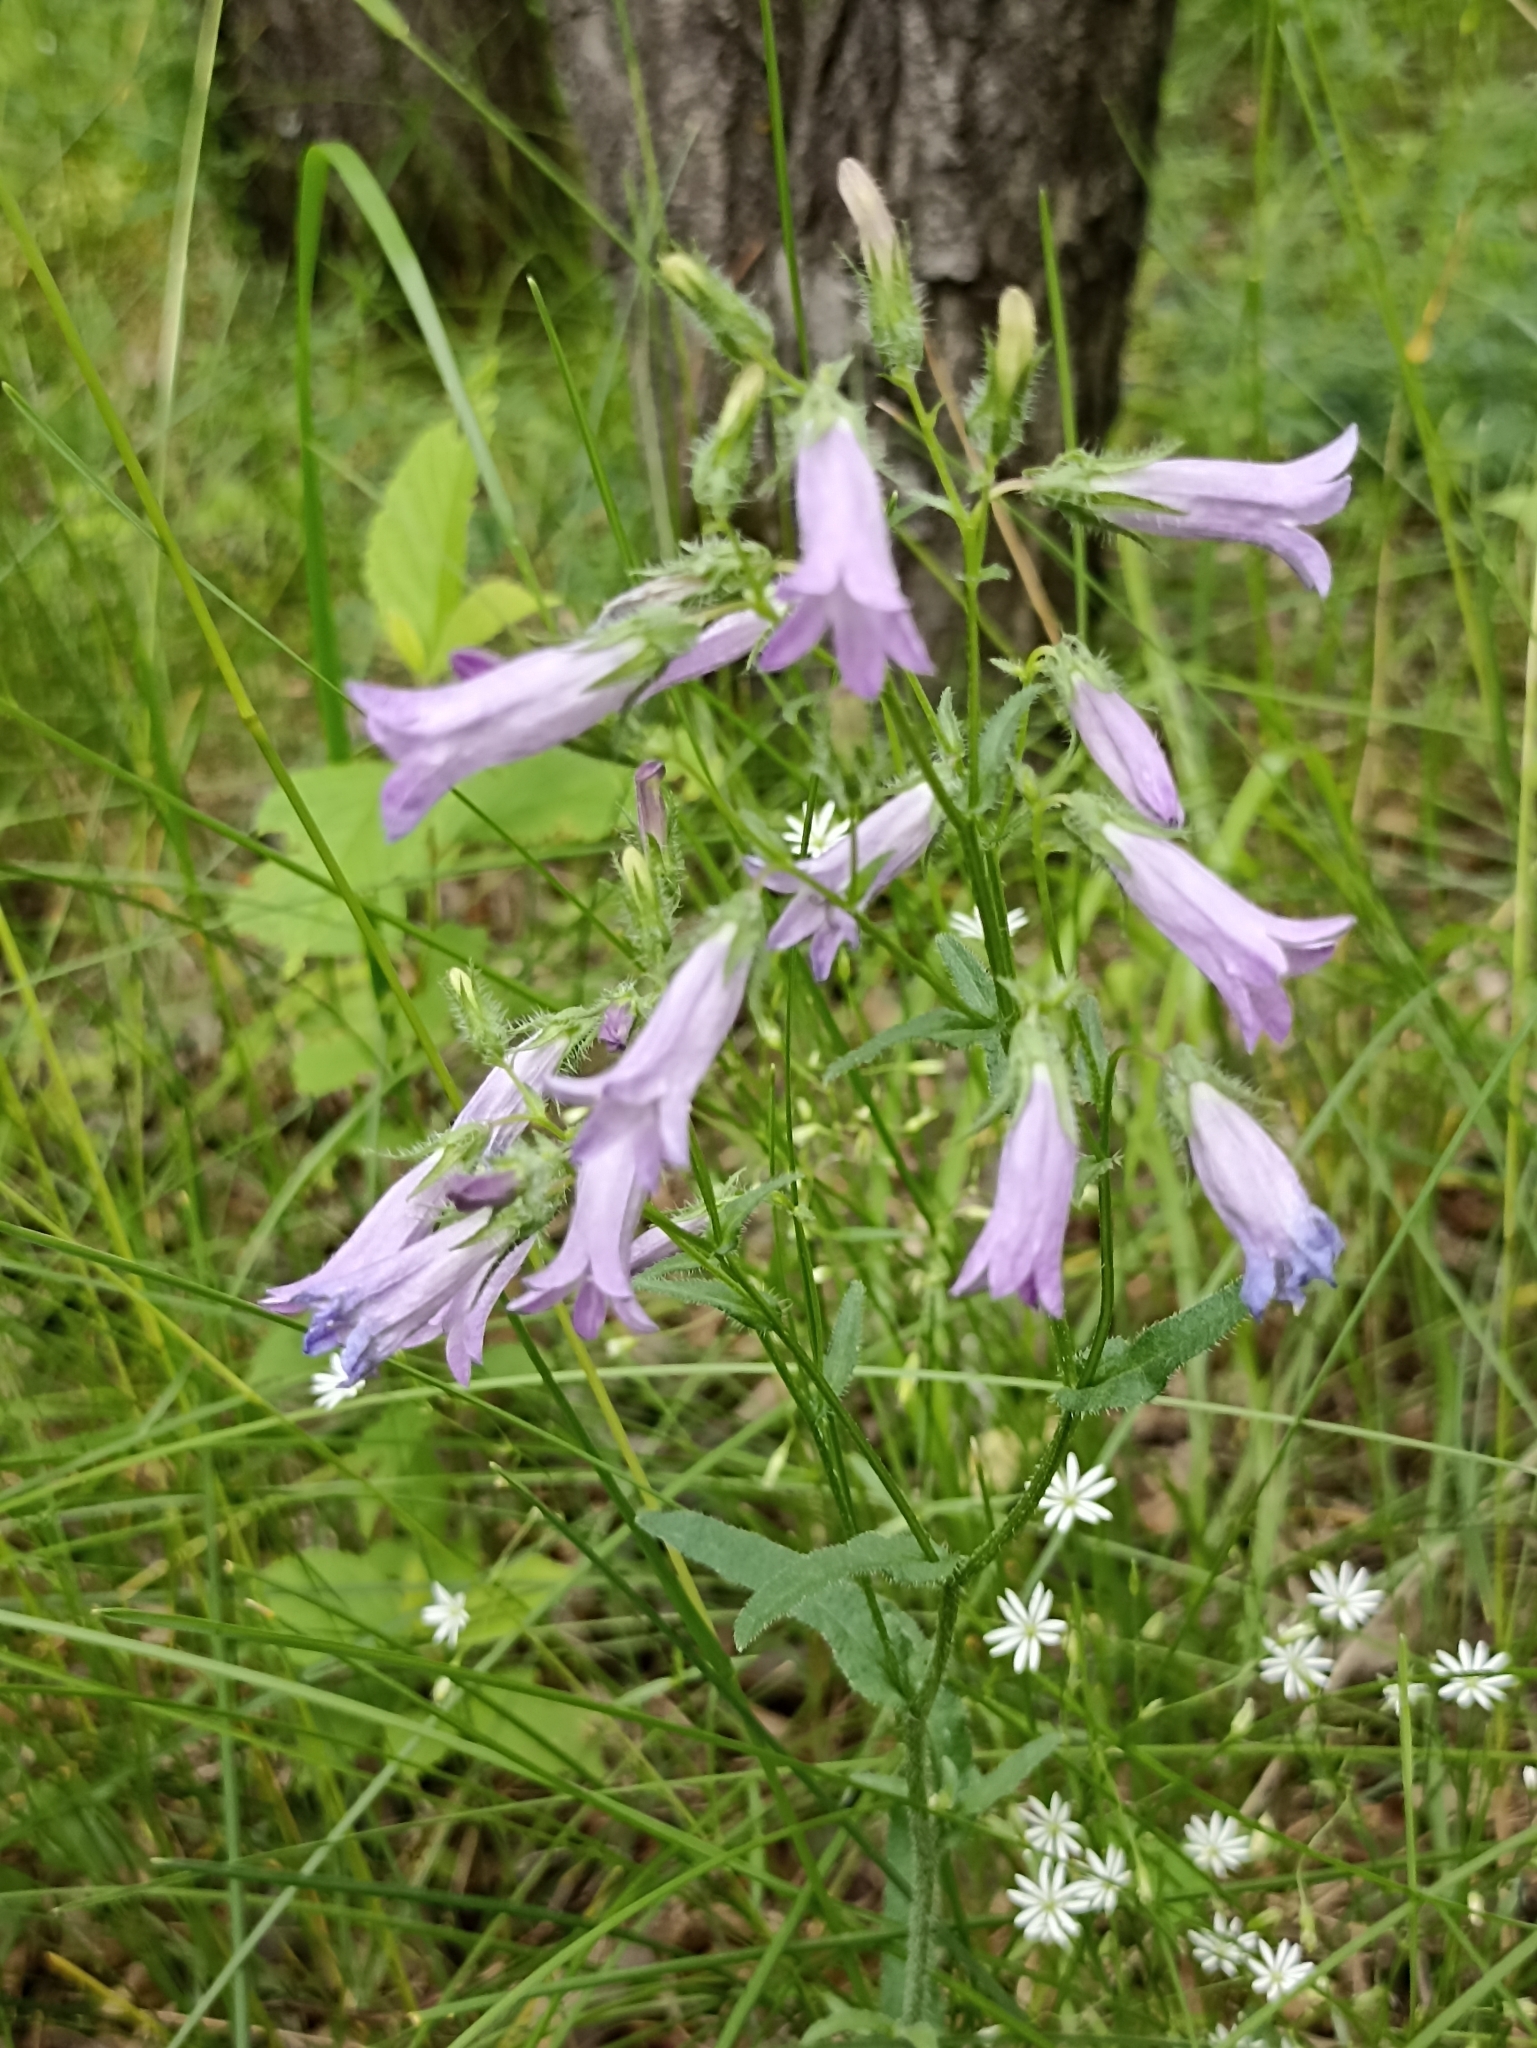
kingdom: Plantae
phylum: Tracheophyta
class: Magnoliopsida
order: Asterales
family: Campanulaceae
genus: Campanula
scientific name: Campanula sibirica
